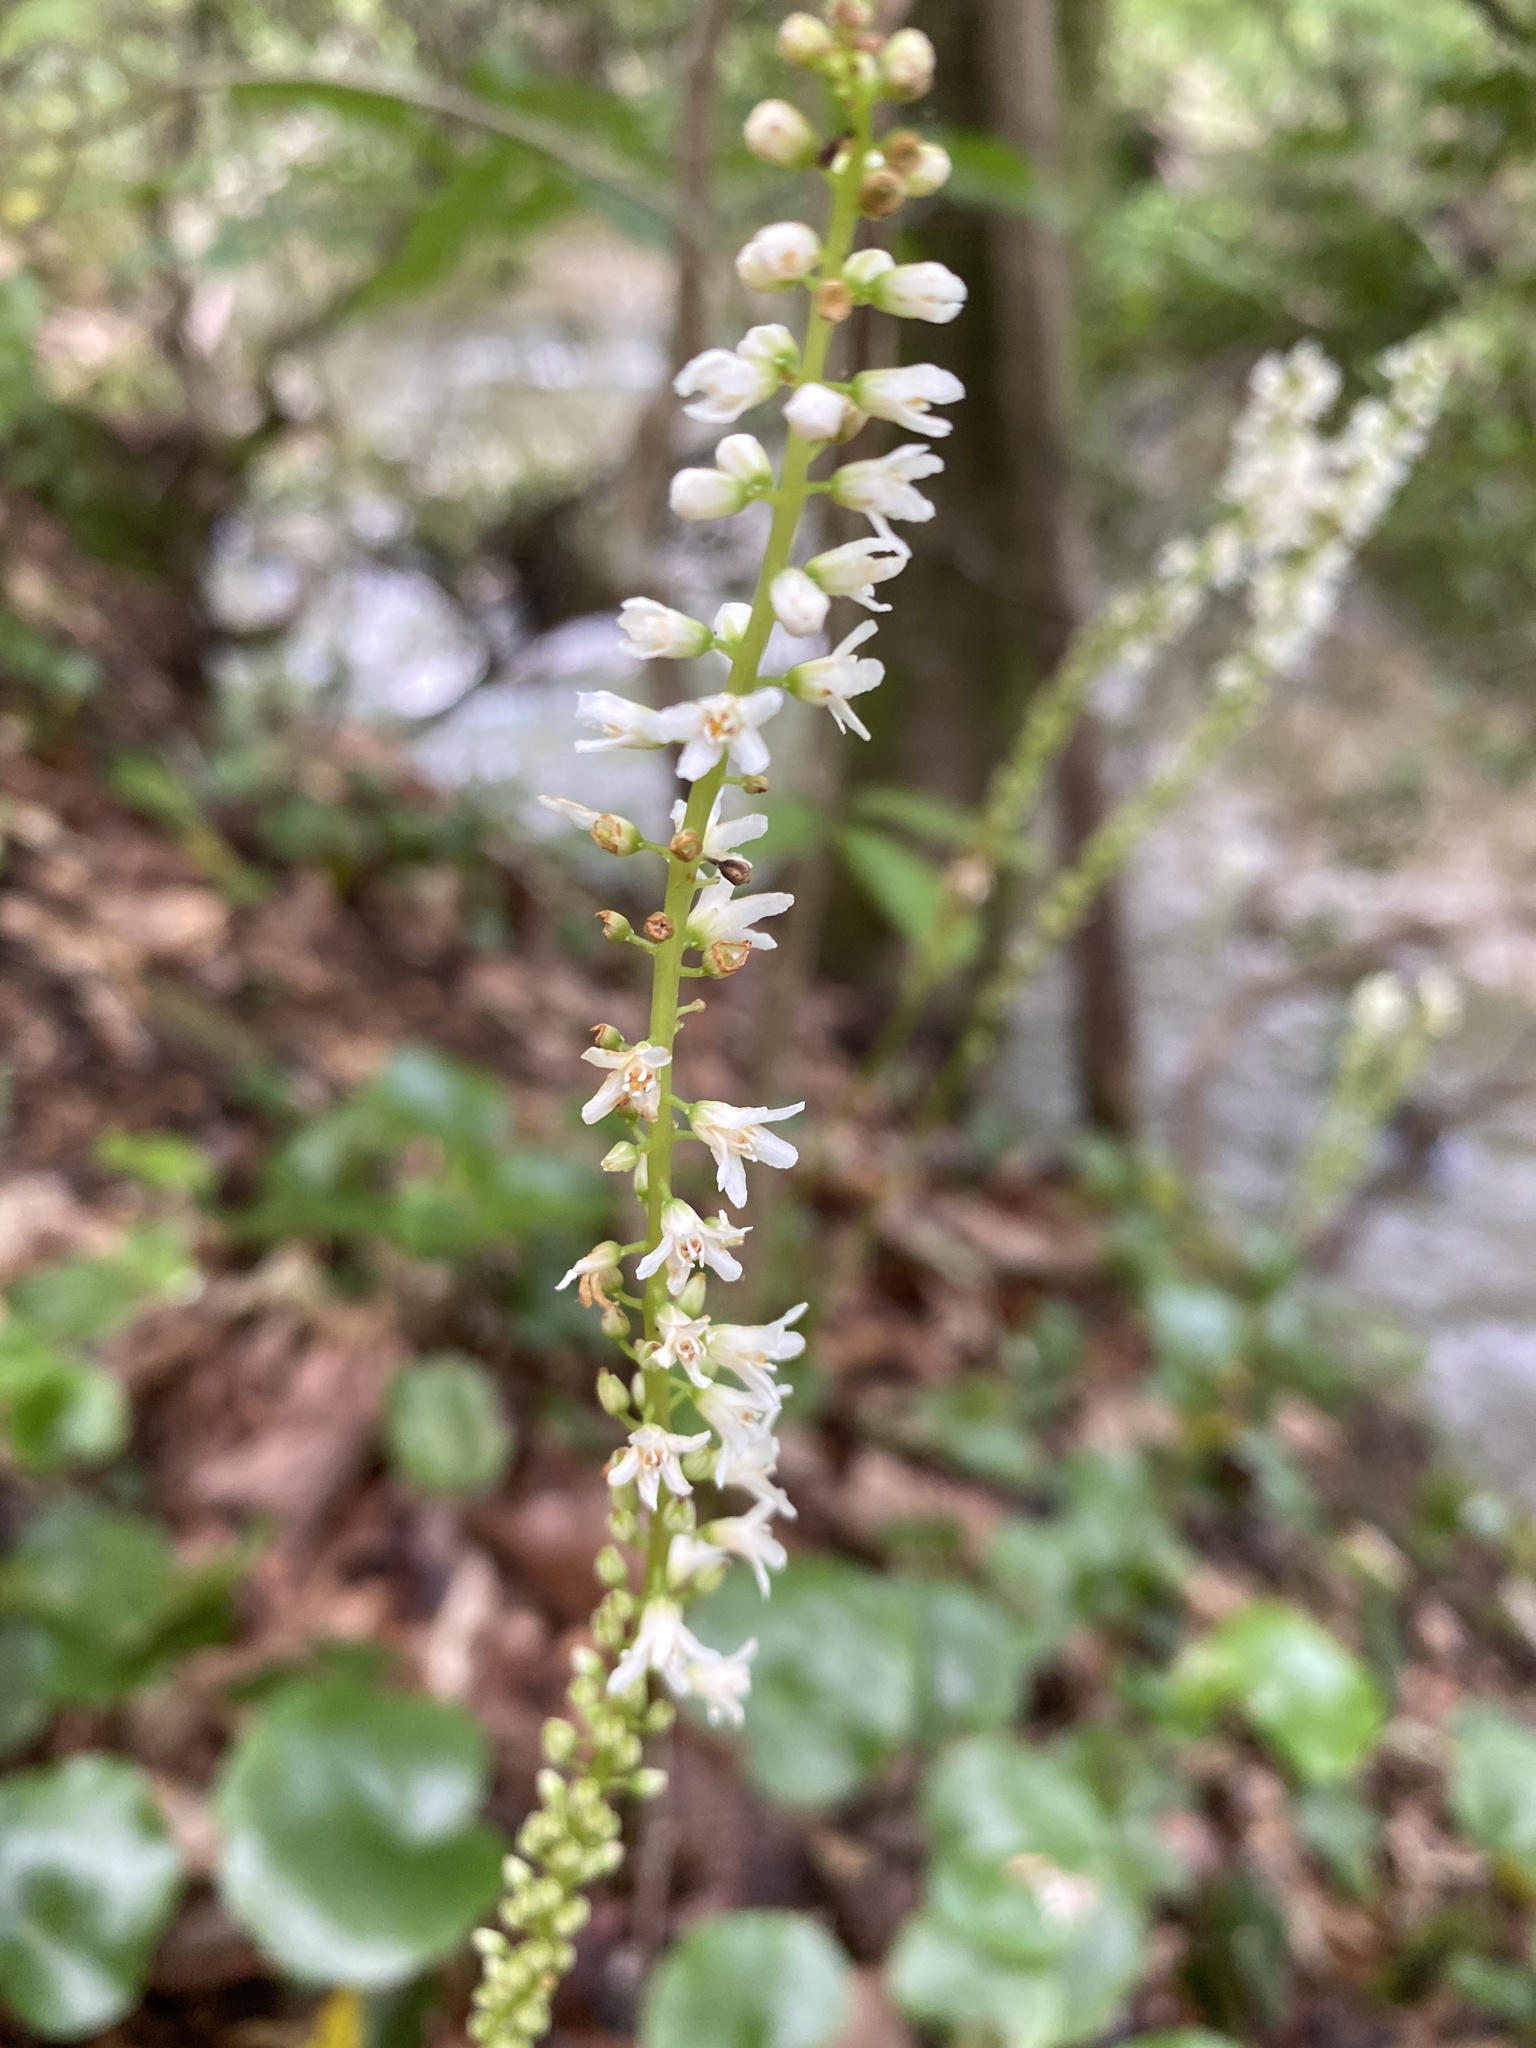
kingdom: Plantae
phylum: Tracheophyta
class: Magnoliopsida
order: Ericales
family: Diapensiaceae
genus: Galax
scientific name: Galax urceolata
